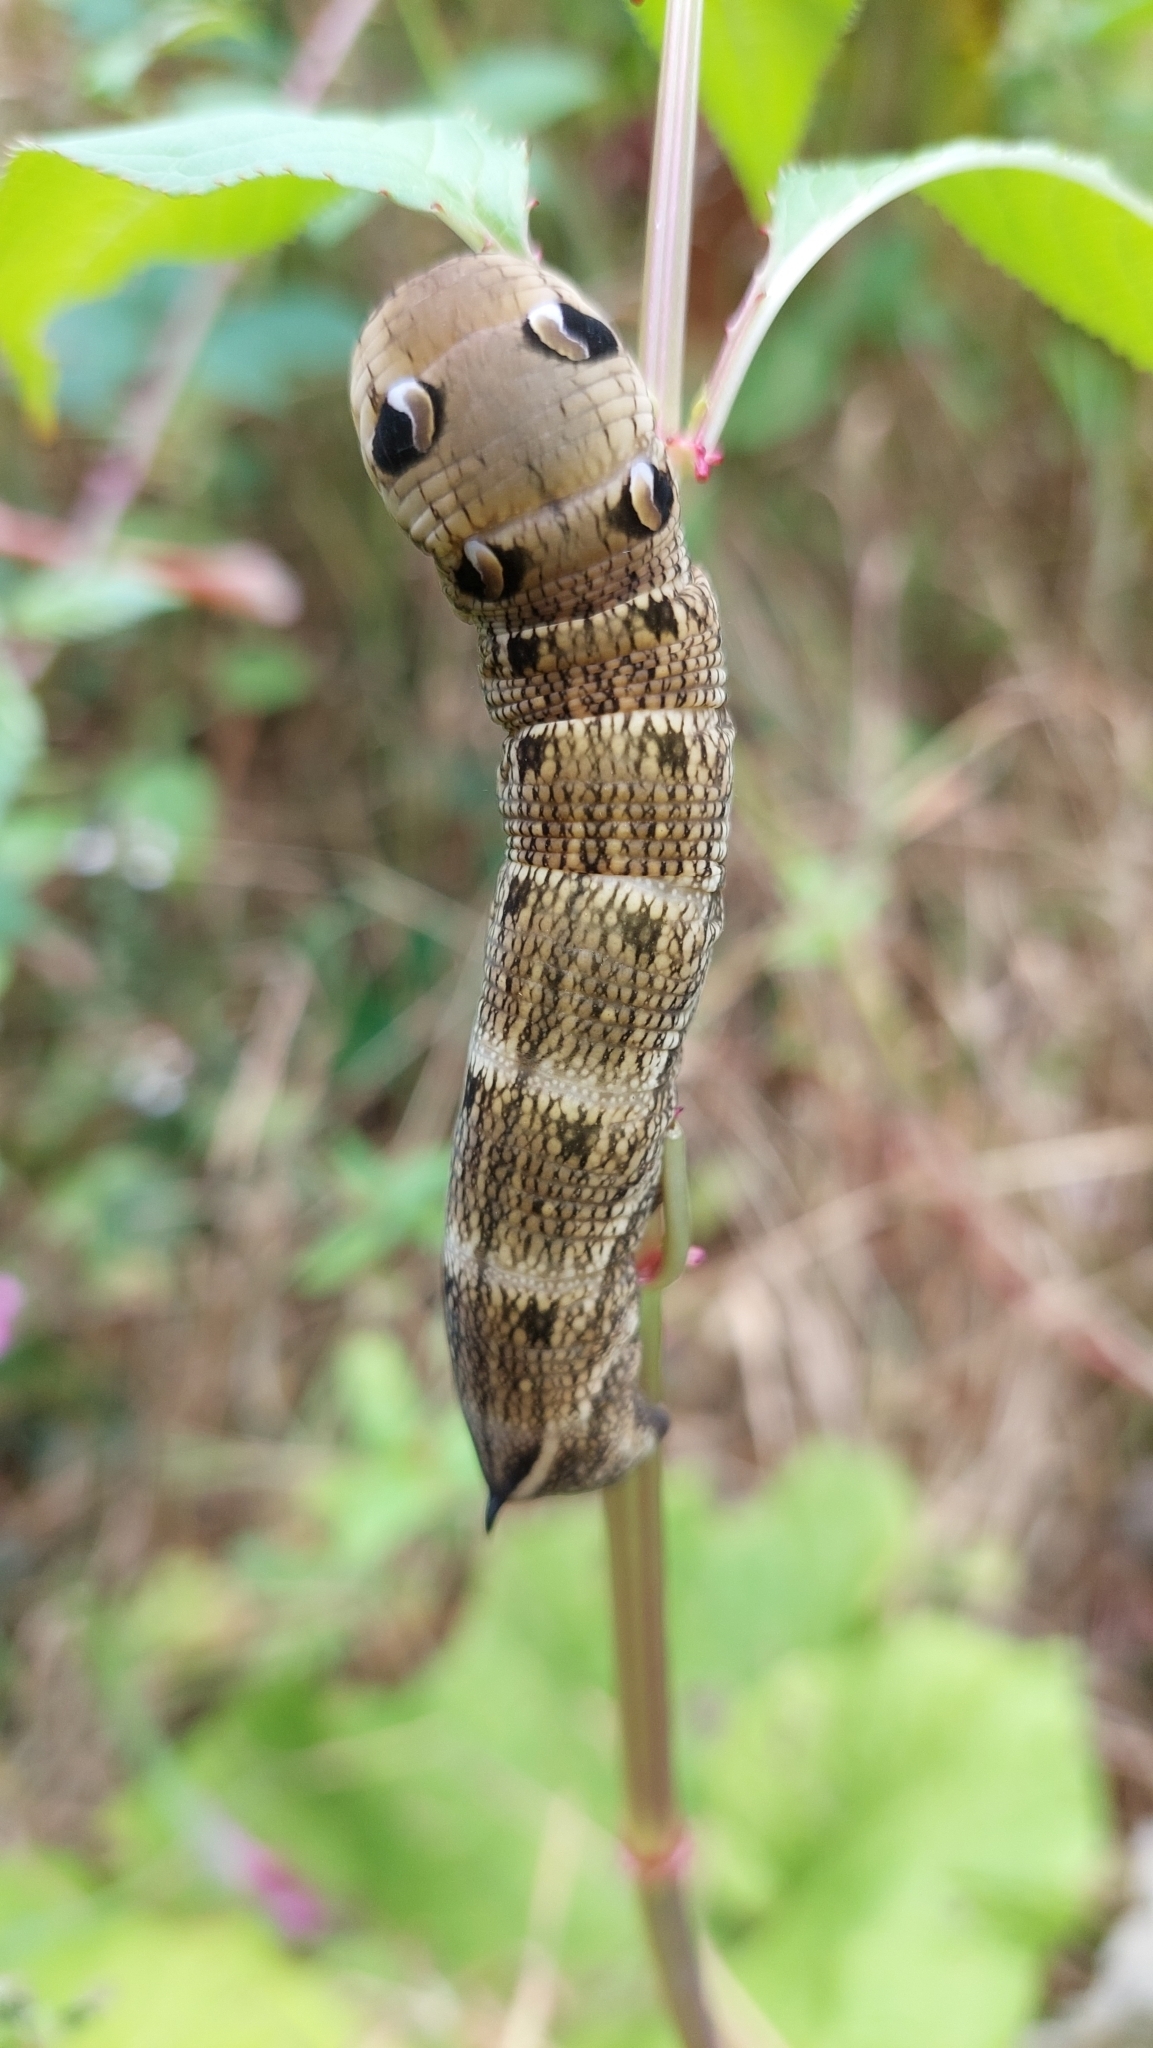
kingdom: Animalia
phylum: Arthropoda
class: Insecta
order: Lepidoptera
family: Sphingidae
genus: Deilephila
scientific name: Deilephila elpenor
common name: Elephant hawk-moth
